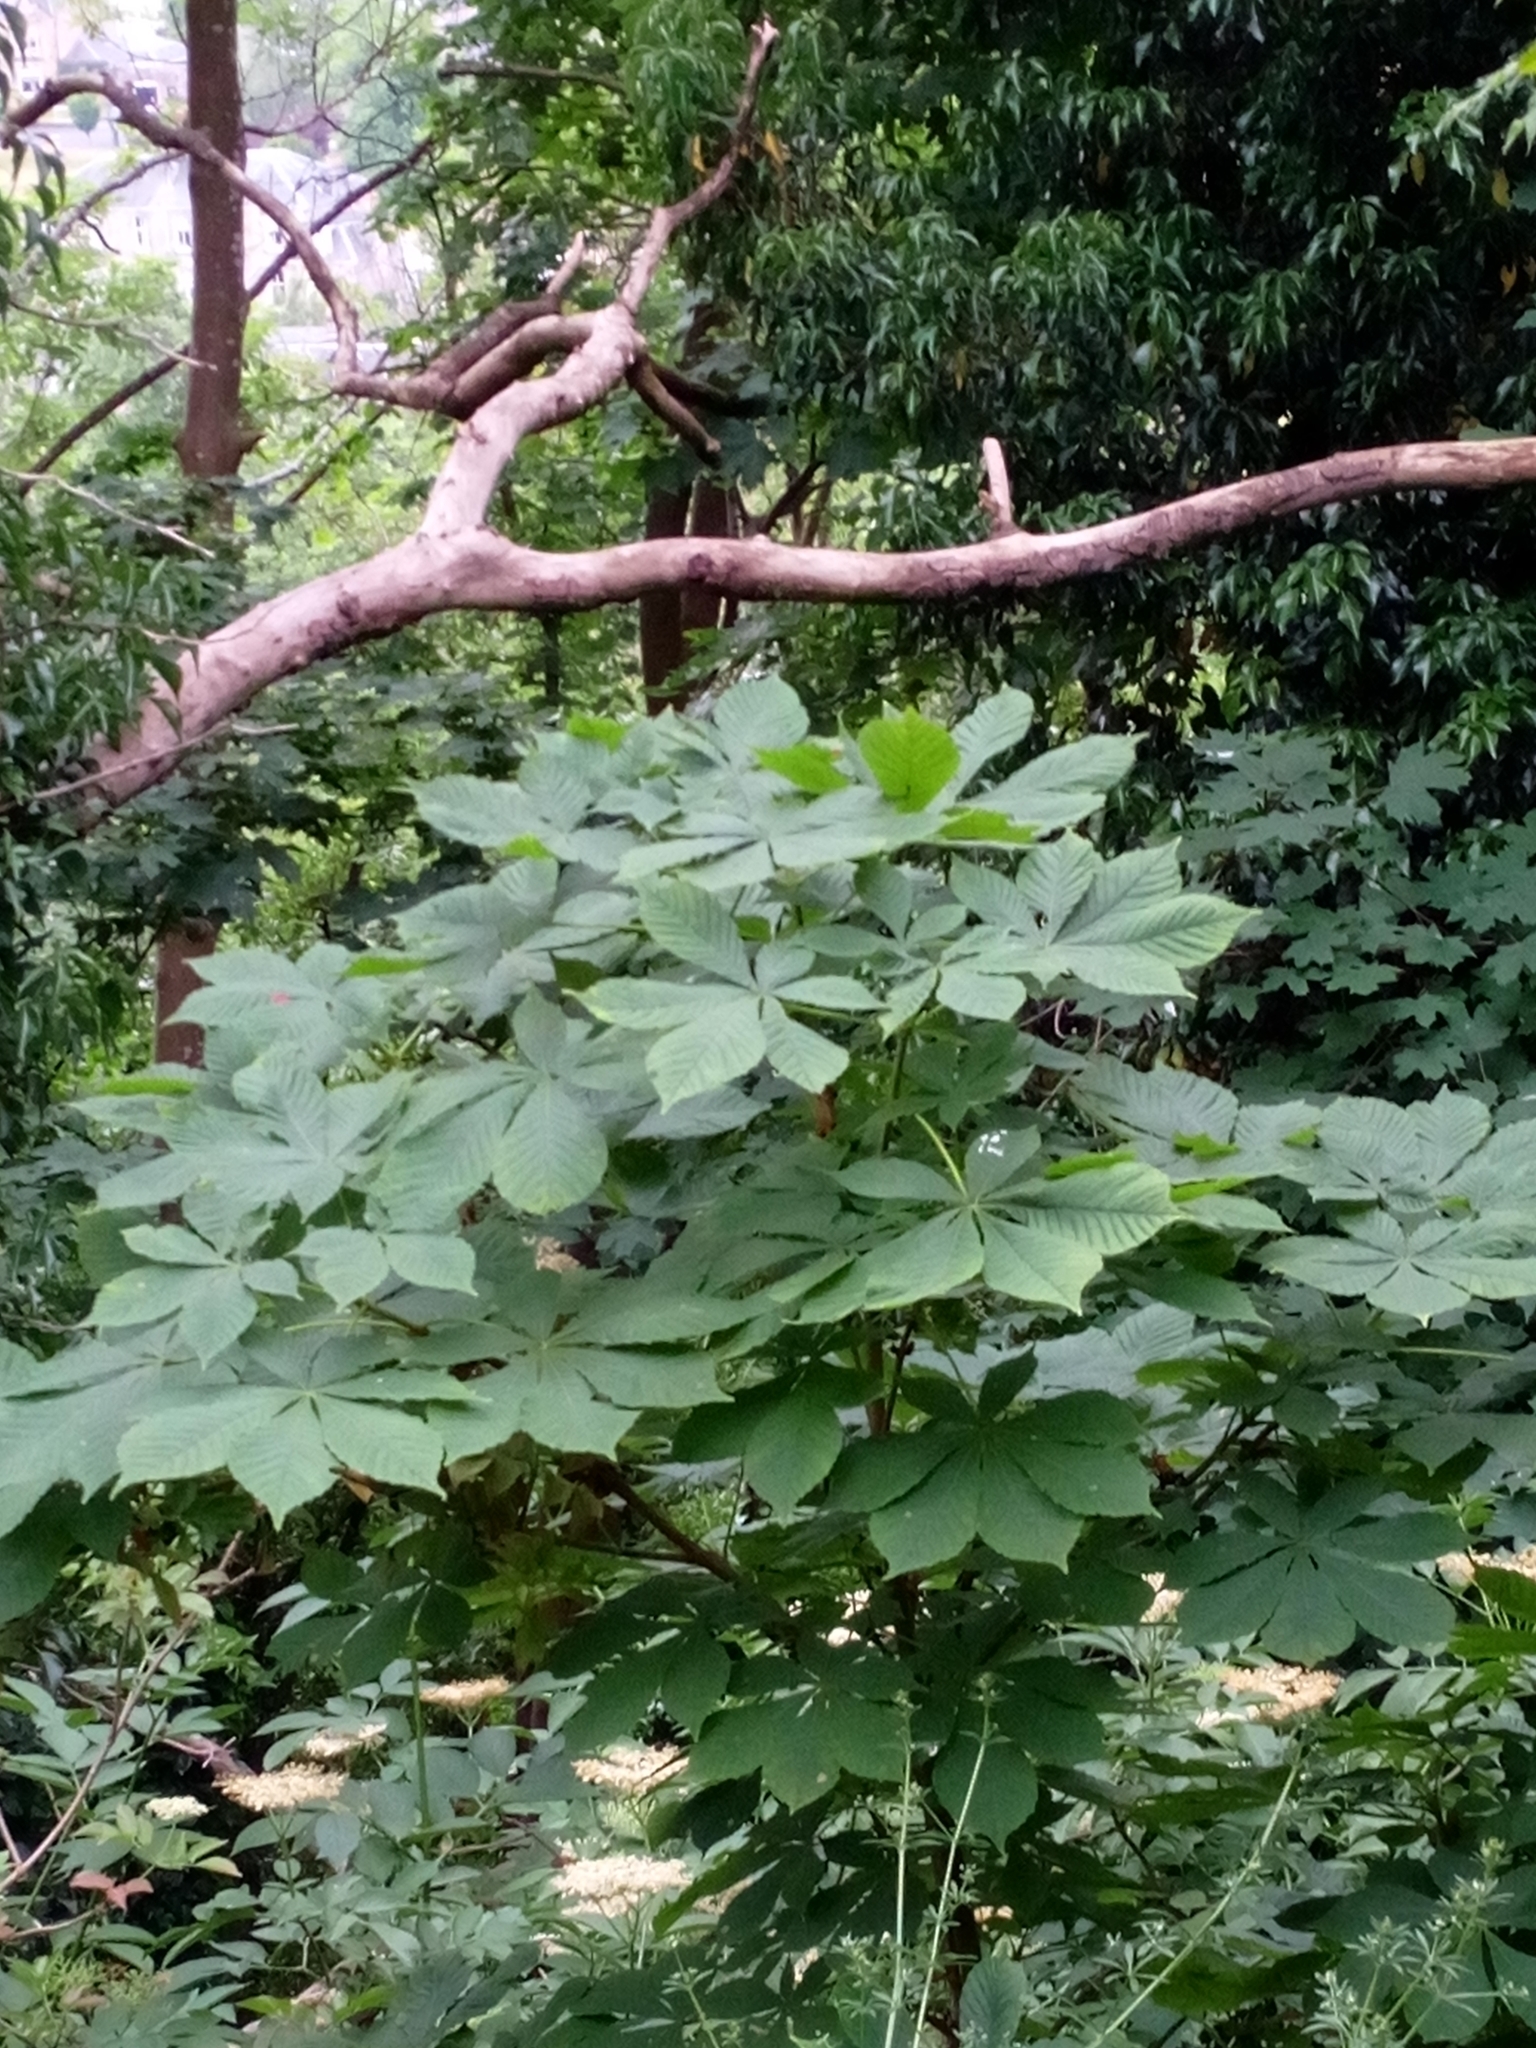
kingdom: Plantae
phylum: Tracheophyta
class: Magnoliopsida
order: Sapindales
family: Sapindaceae
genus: Aesculus
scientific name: Aesculus hippocastanum
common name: Horse-chestnut
